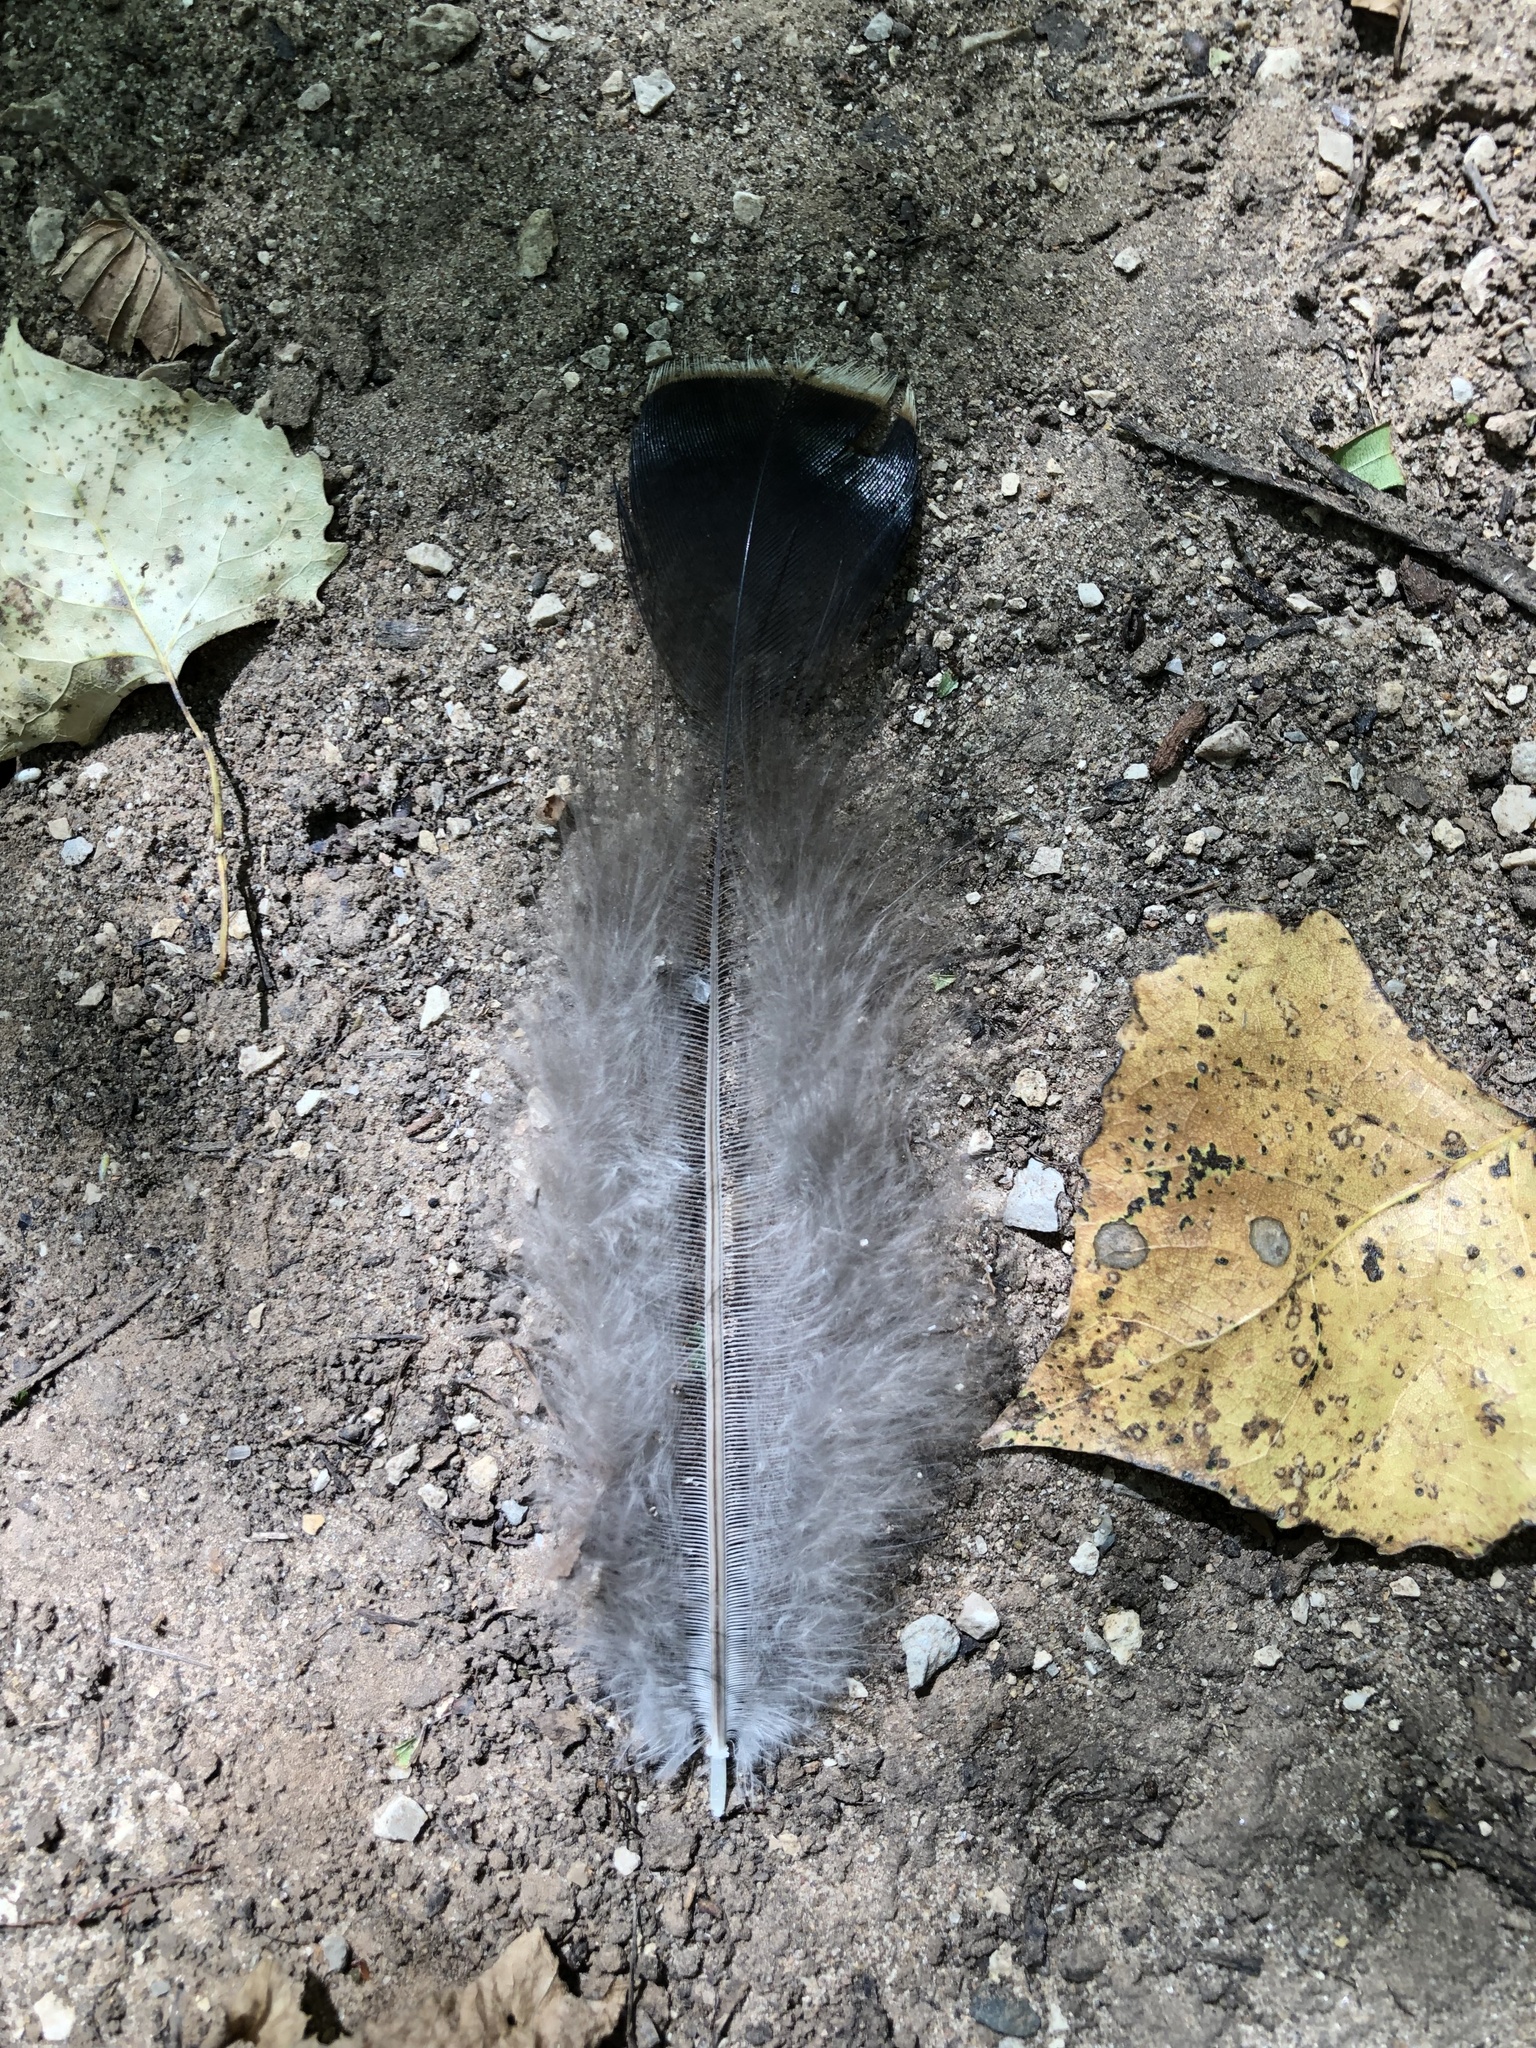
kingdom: Animalia
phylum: Chordata
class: Aves
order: Galliformes
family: Phasianidae
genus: Meleagris
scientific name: Meleagris gallopavo
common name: Wild turkey
